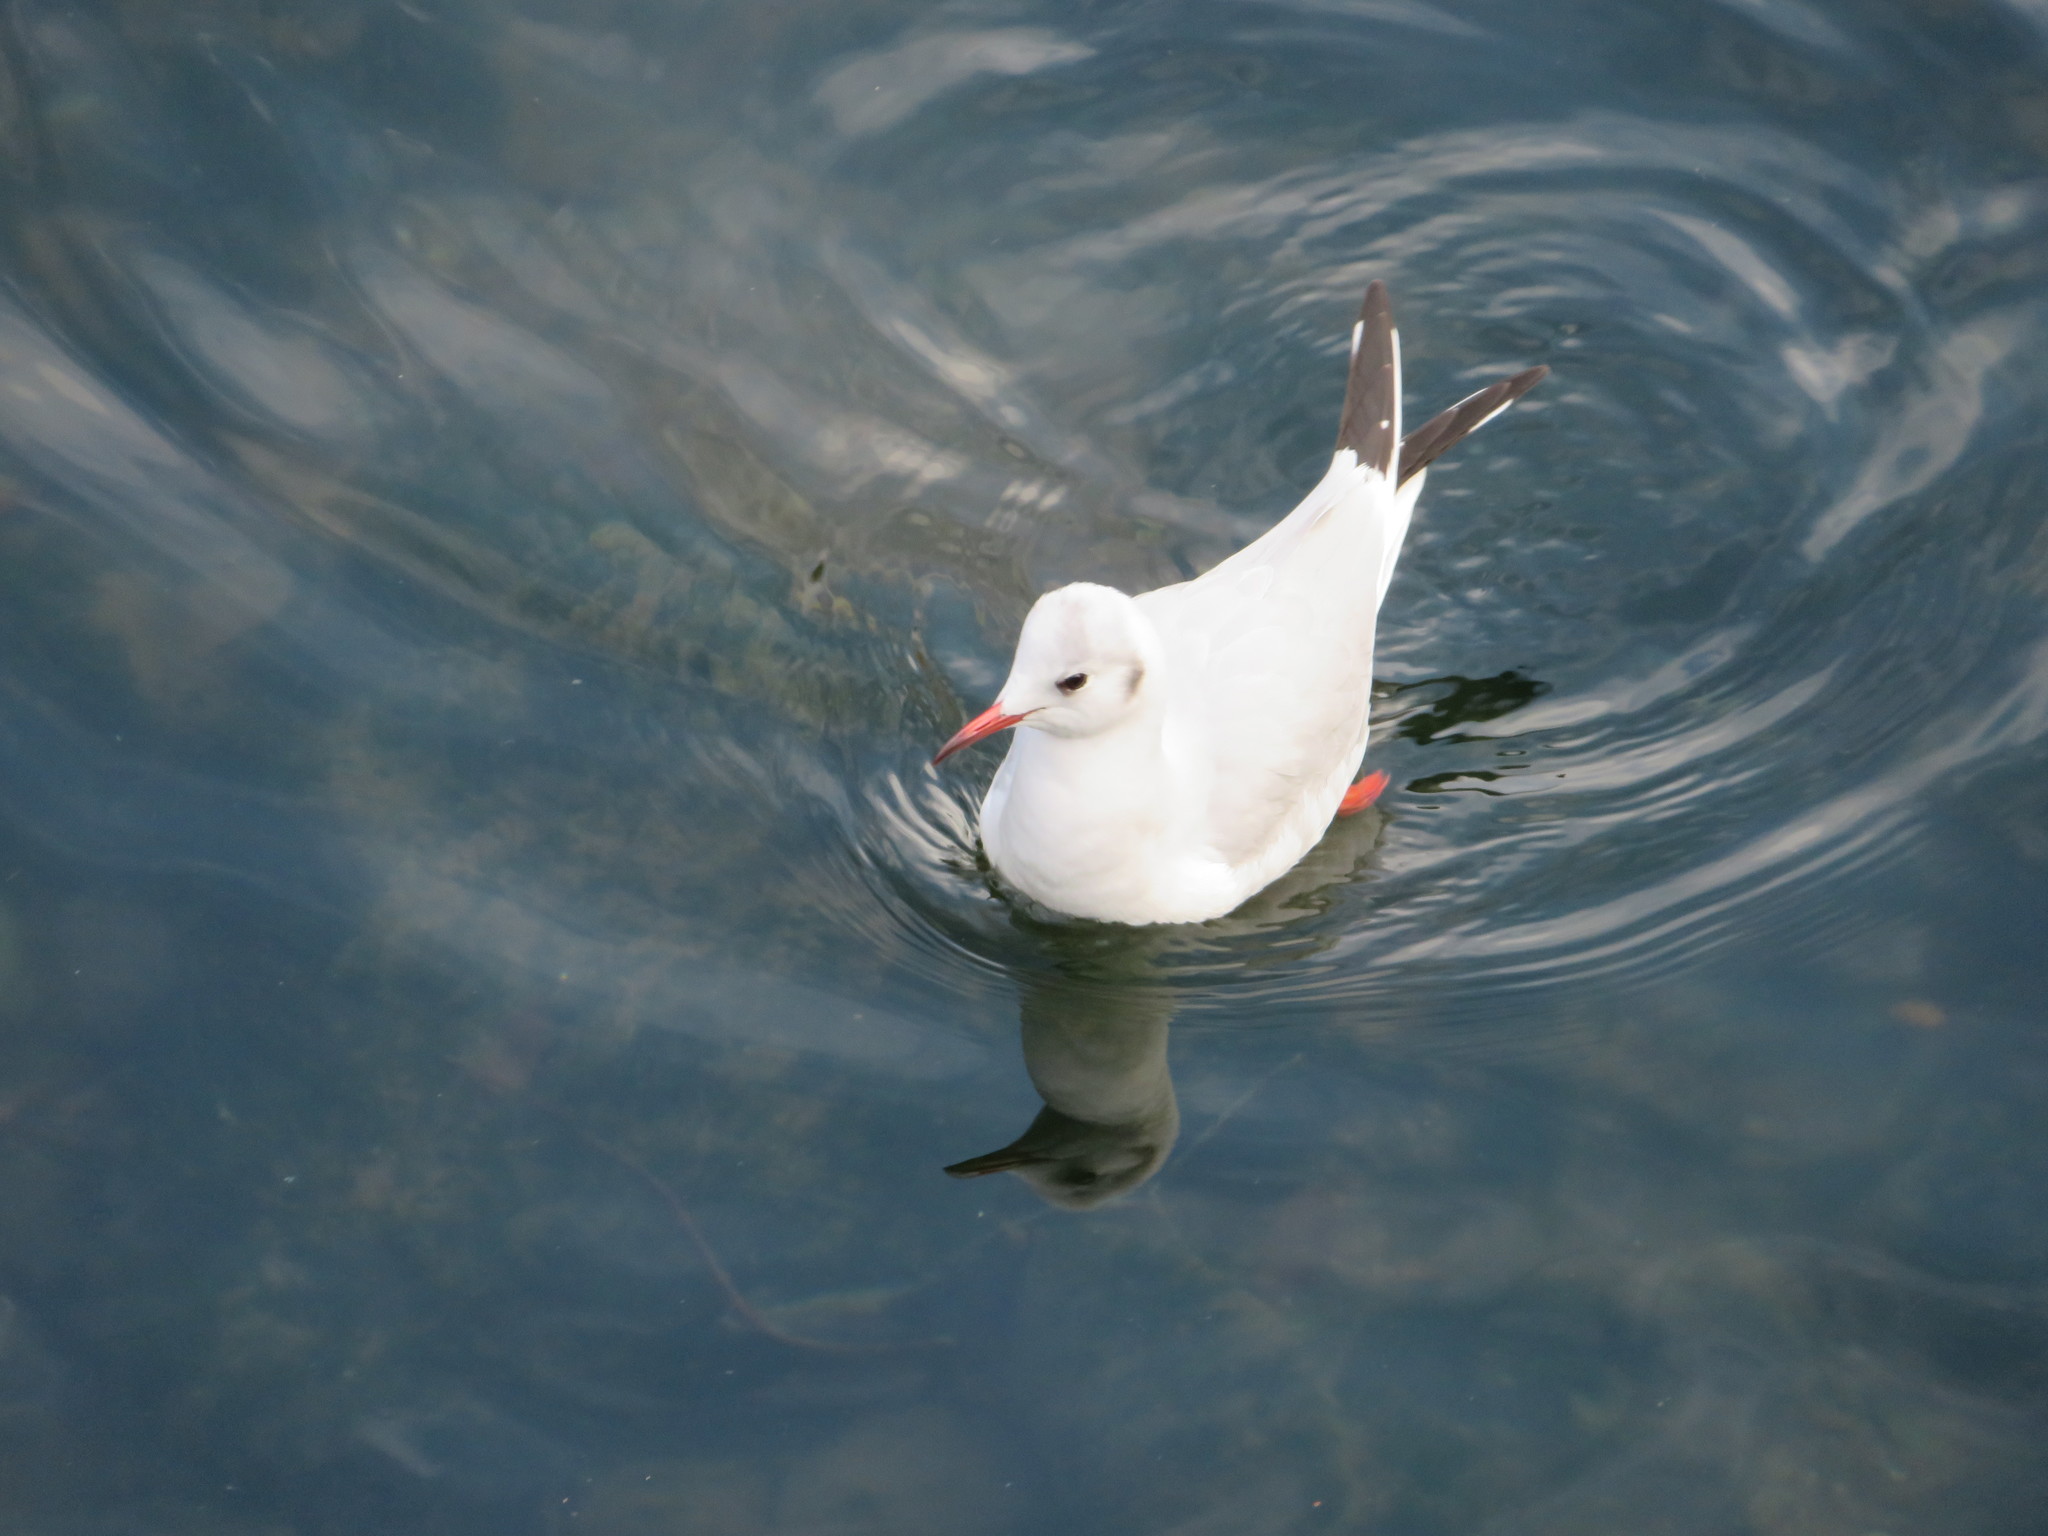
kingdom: Animalia
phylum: Chordata
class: Aves
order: Charadriiformes
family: Laridae
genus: Chroicocephalus
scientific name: Chroicocephalus ridibundus
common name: Black-headed gull
